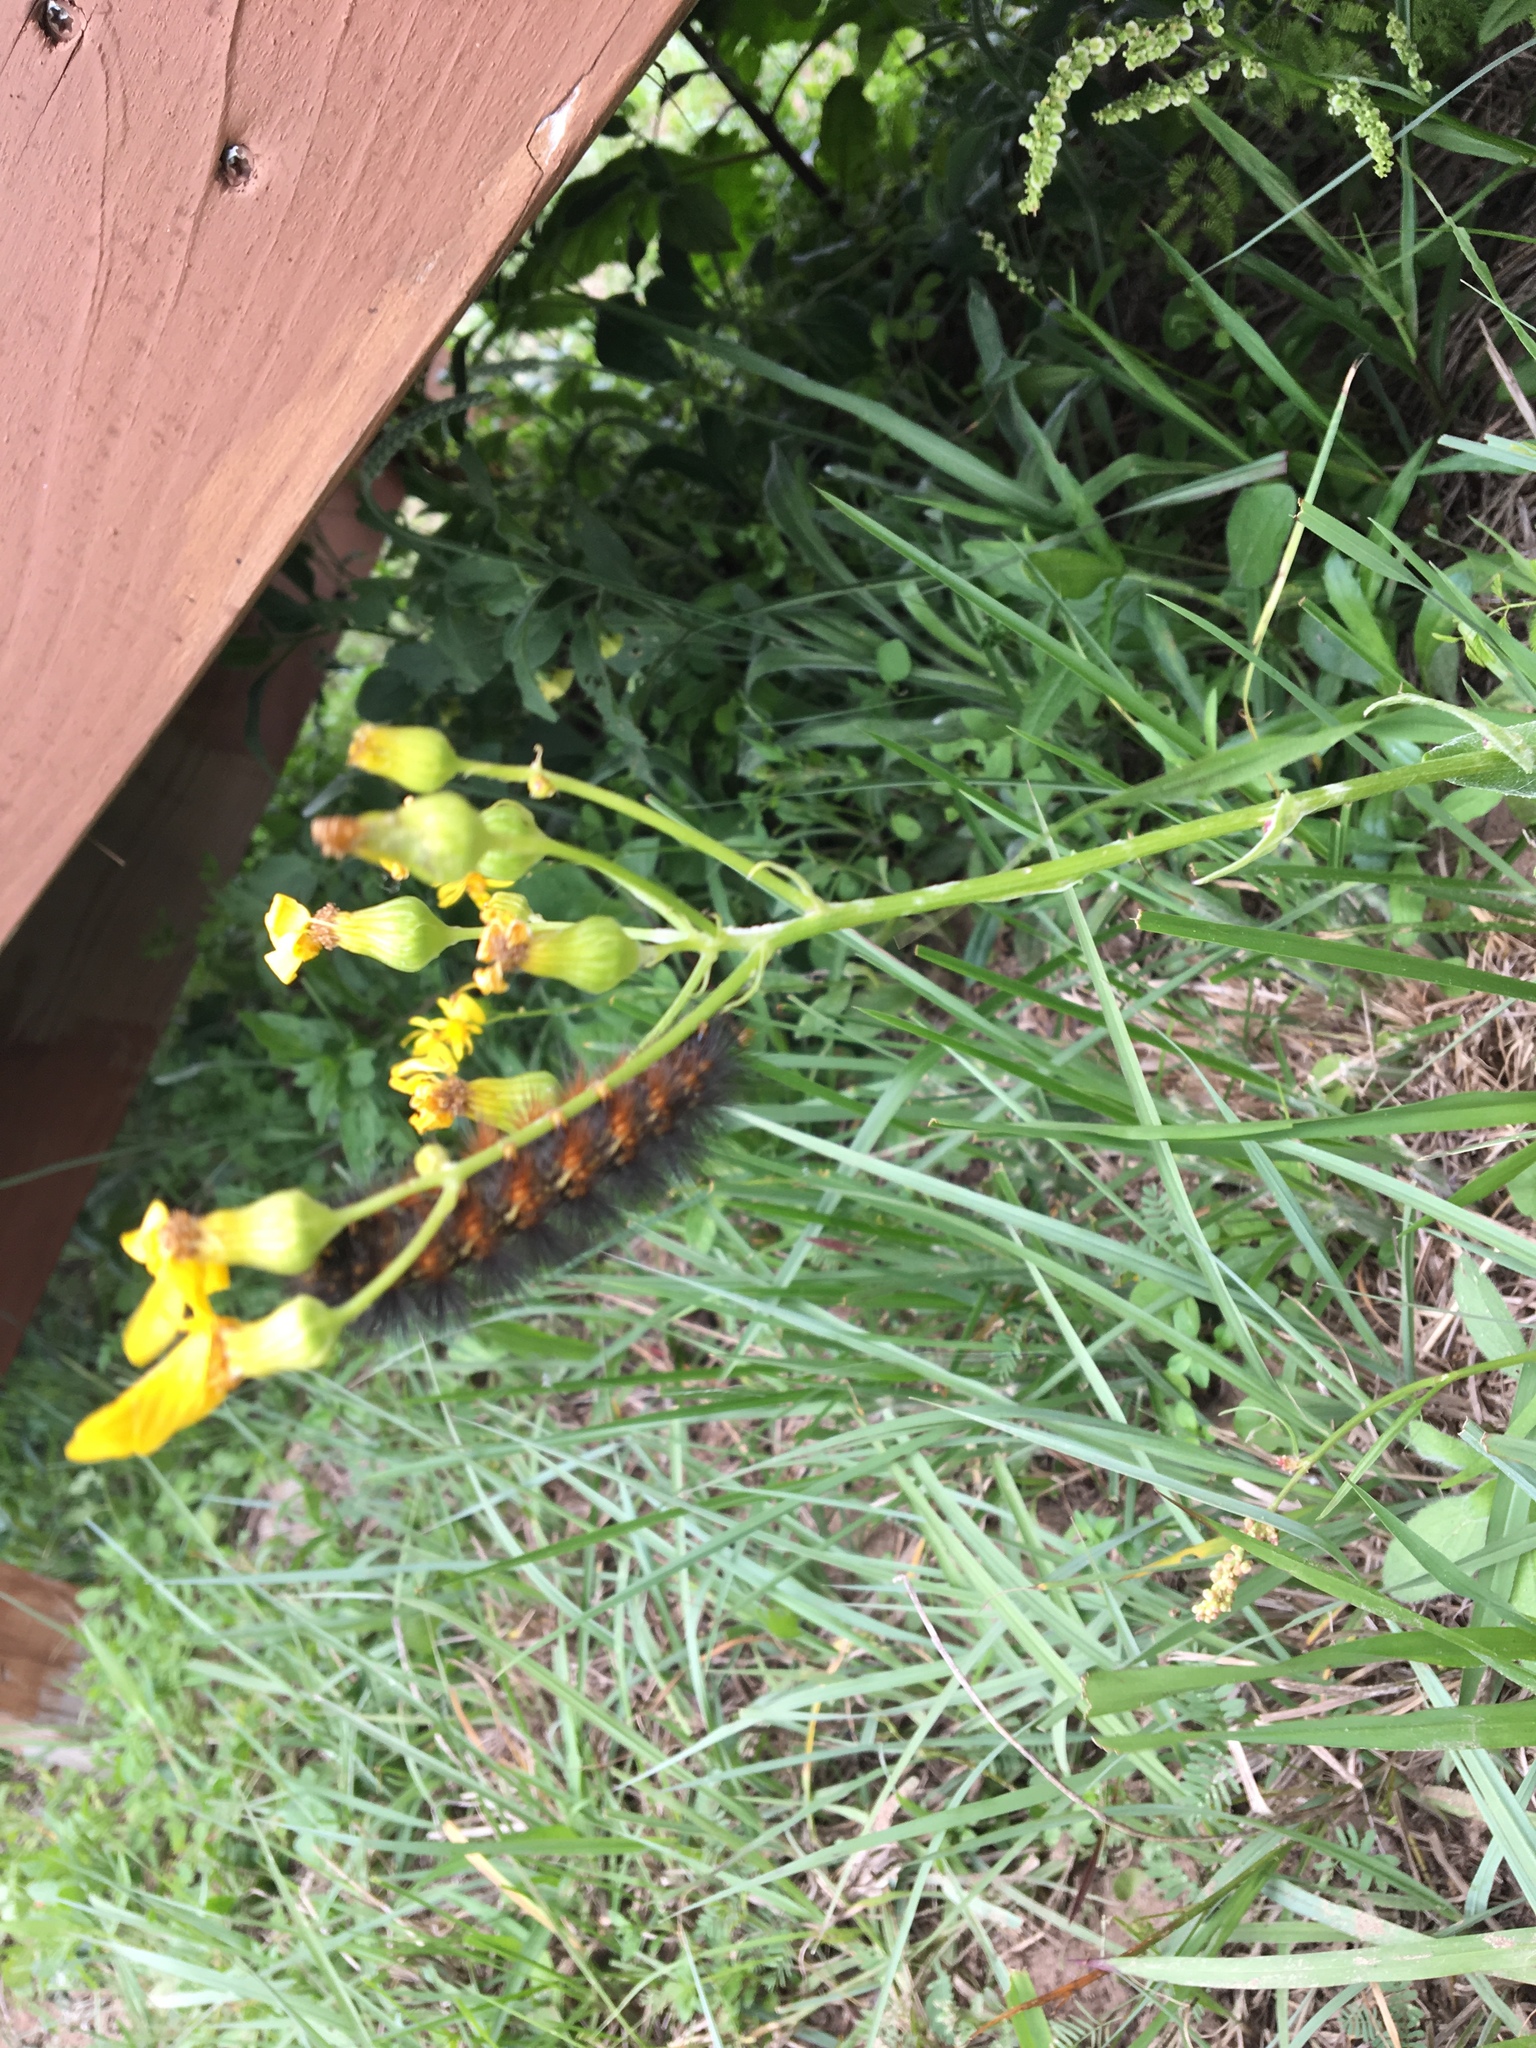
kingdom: Animalia
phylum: Arthropoda
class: Insecta
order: Lepidoptera
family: Erebidae
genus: Estigmene
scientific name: Estigmene acrea
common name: Salt marsh moth
